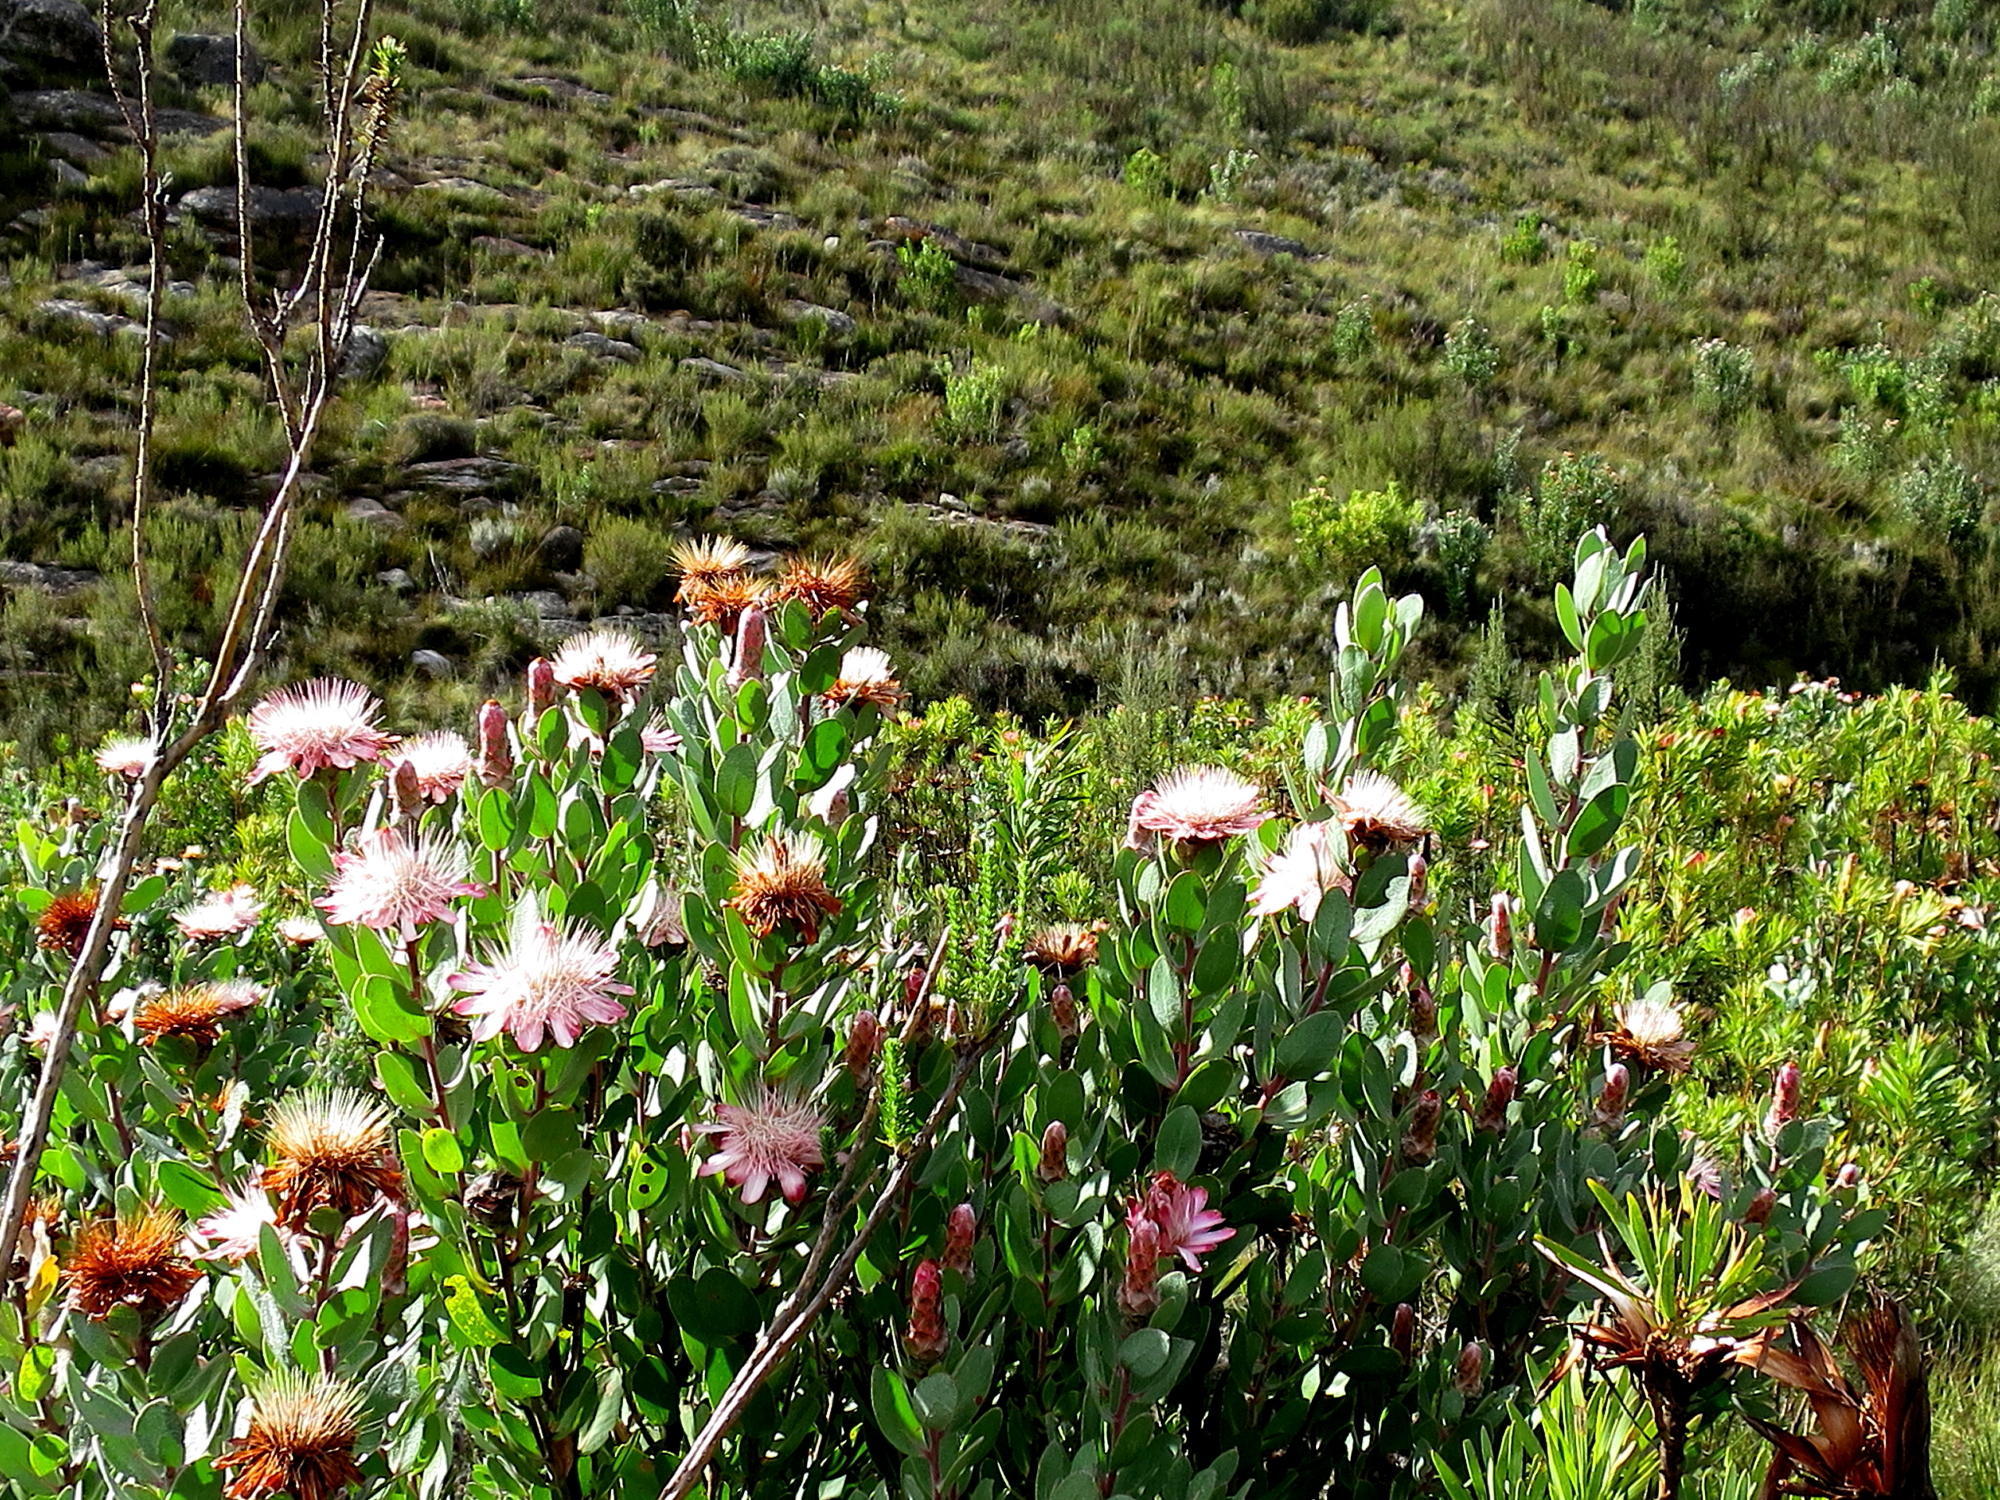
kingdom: Plantae
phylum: Tracheophyta
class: Magnoliopsida
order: Proteales
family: Proteaceae
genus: Protea
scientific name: Protea punctata
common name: Water sugarbush
